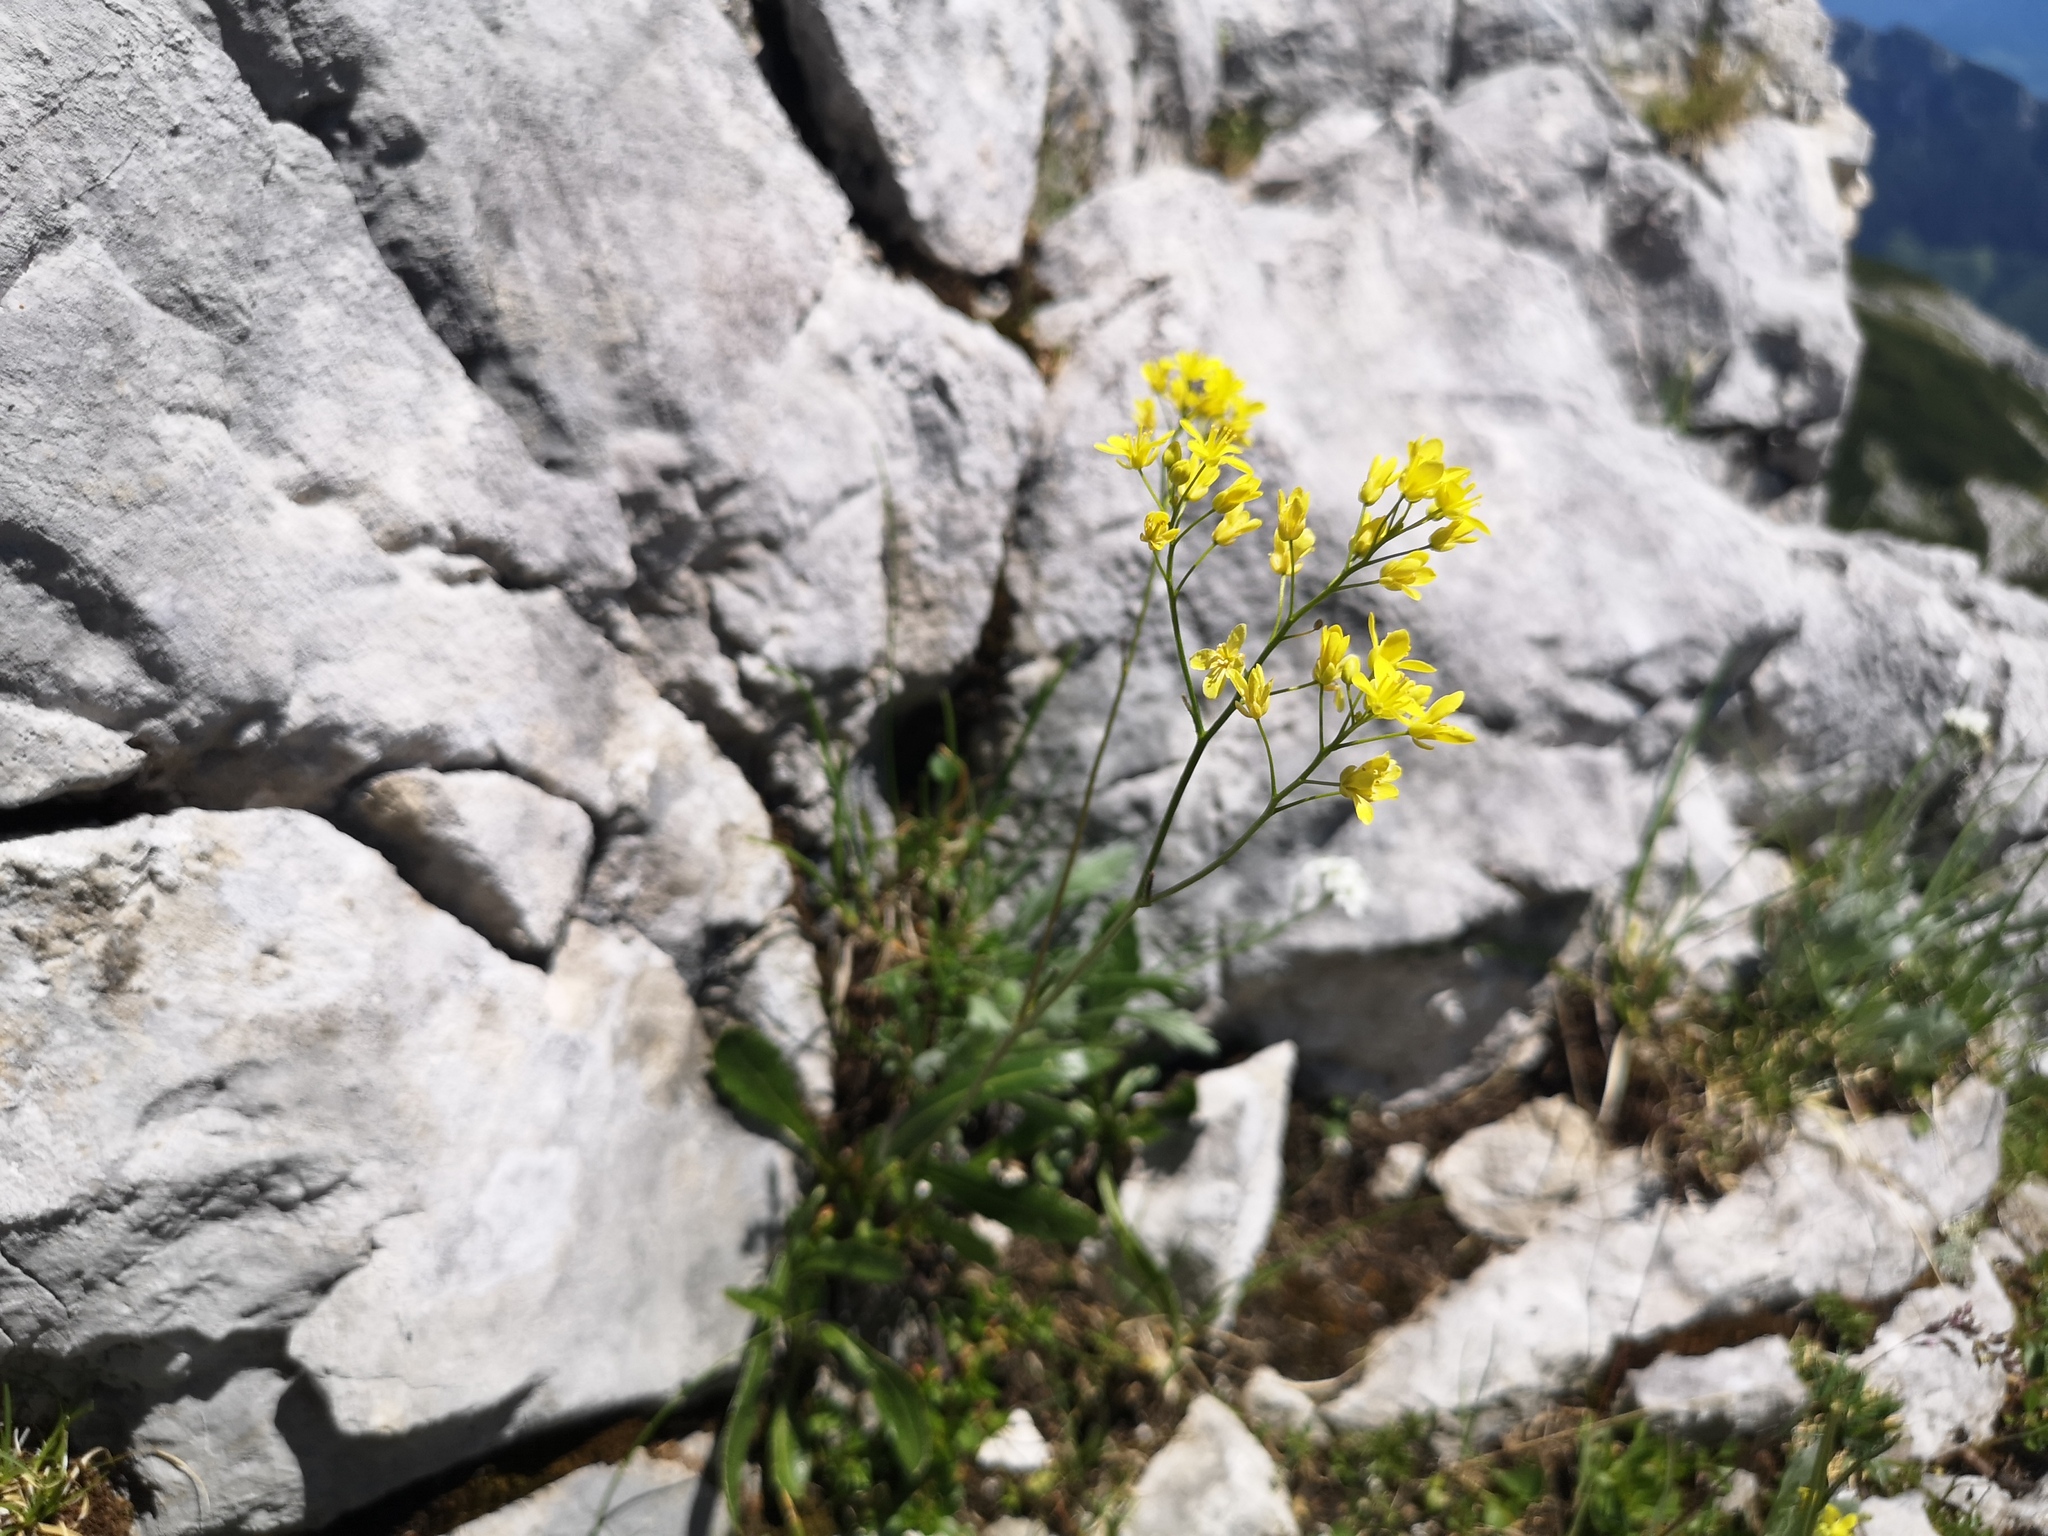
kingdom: Plantae
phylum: Tracheophyta
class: Magnoliopsida
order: Brassicales
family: Brassicaceae
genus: Biscutella
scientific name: Biscutella laevigata
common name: Buckler mustard
